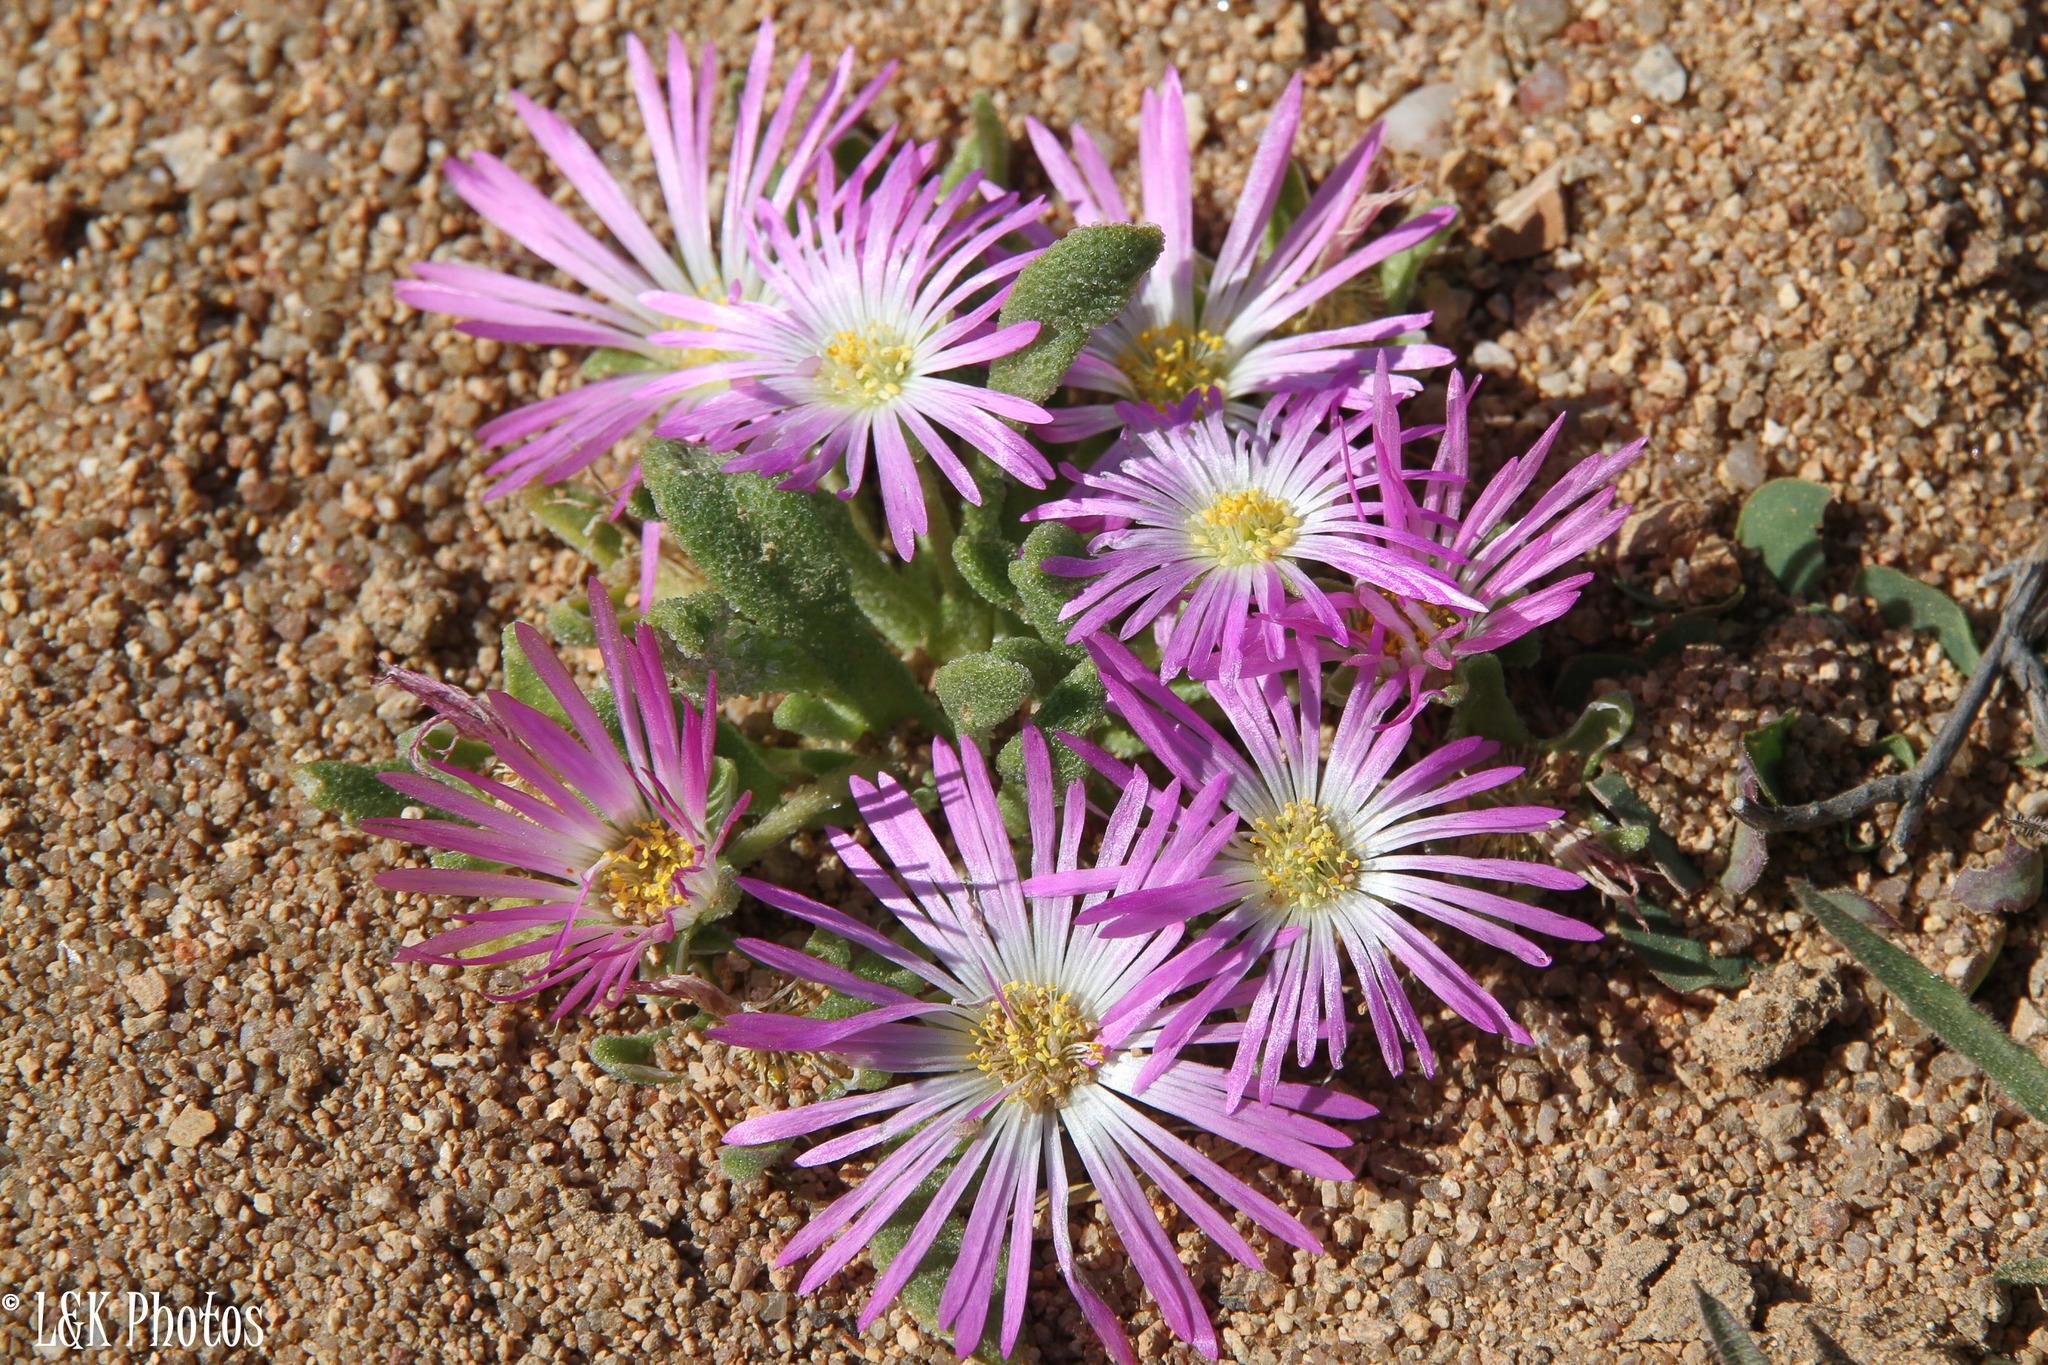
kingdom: Plantae
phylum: Tracheophyta
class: Magnoliopsida
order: Caryophyllales
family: Aizoaceae
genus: Cleretum
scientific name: Cleretum hestermalense
